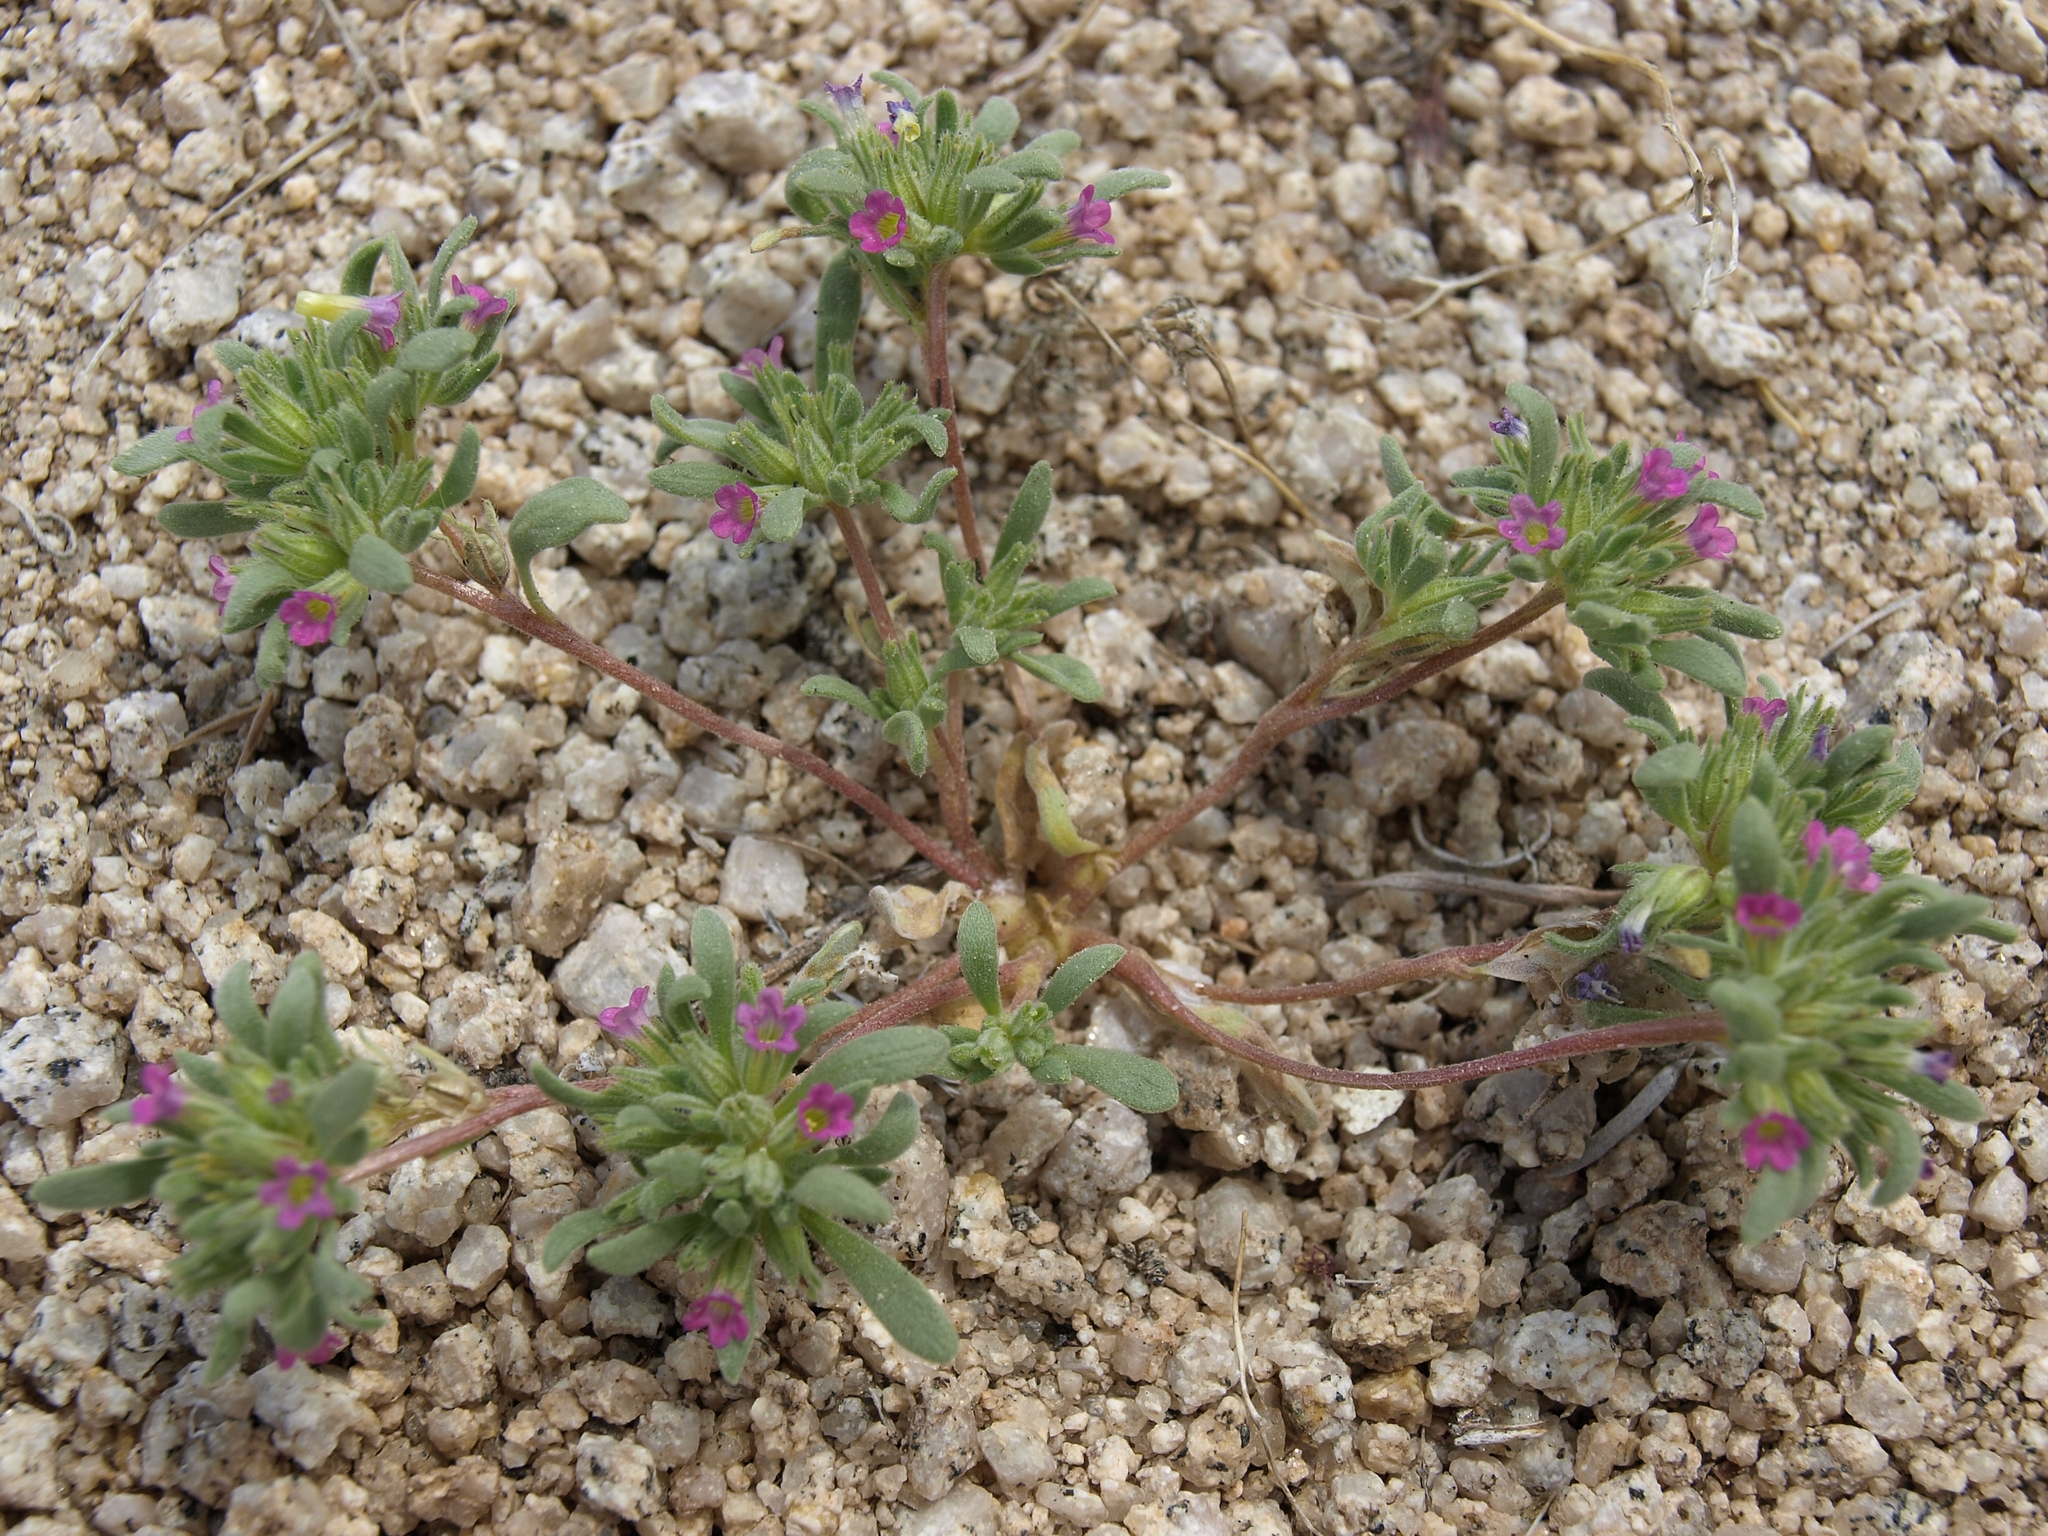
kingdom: Plantae
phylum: Tracheophyta
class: Magnoliopsida
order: Boraginales
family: Namaceae
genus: Nama
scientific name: Nama depressa
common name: Depressed fiddleleaf
